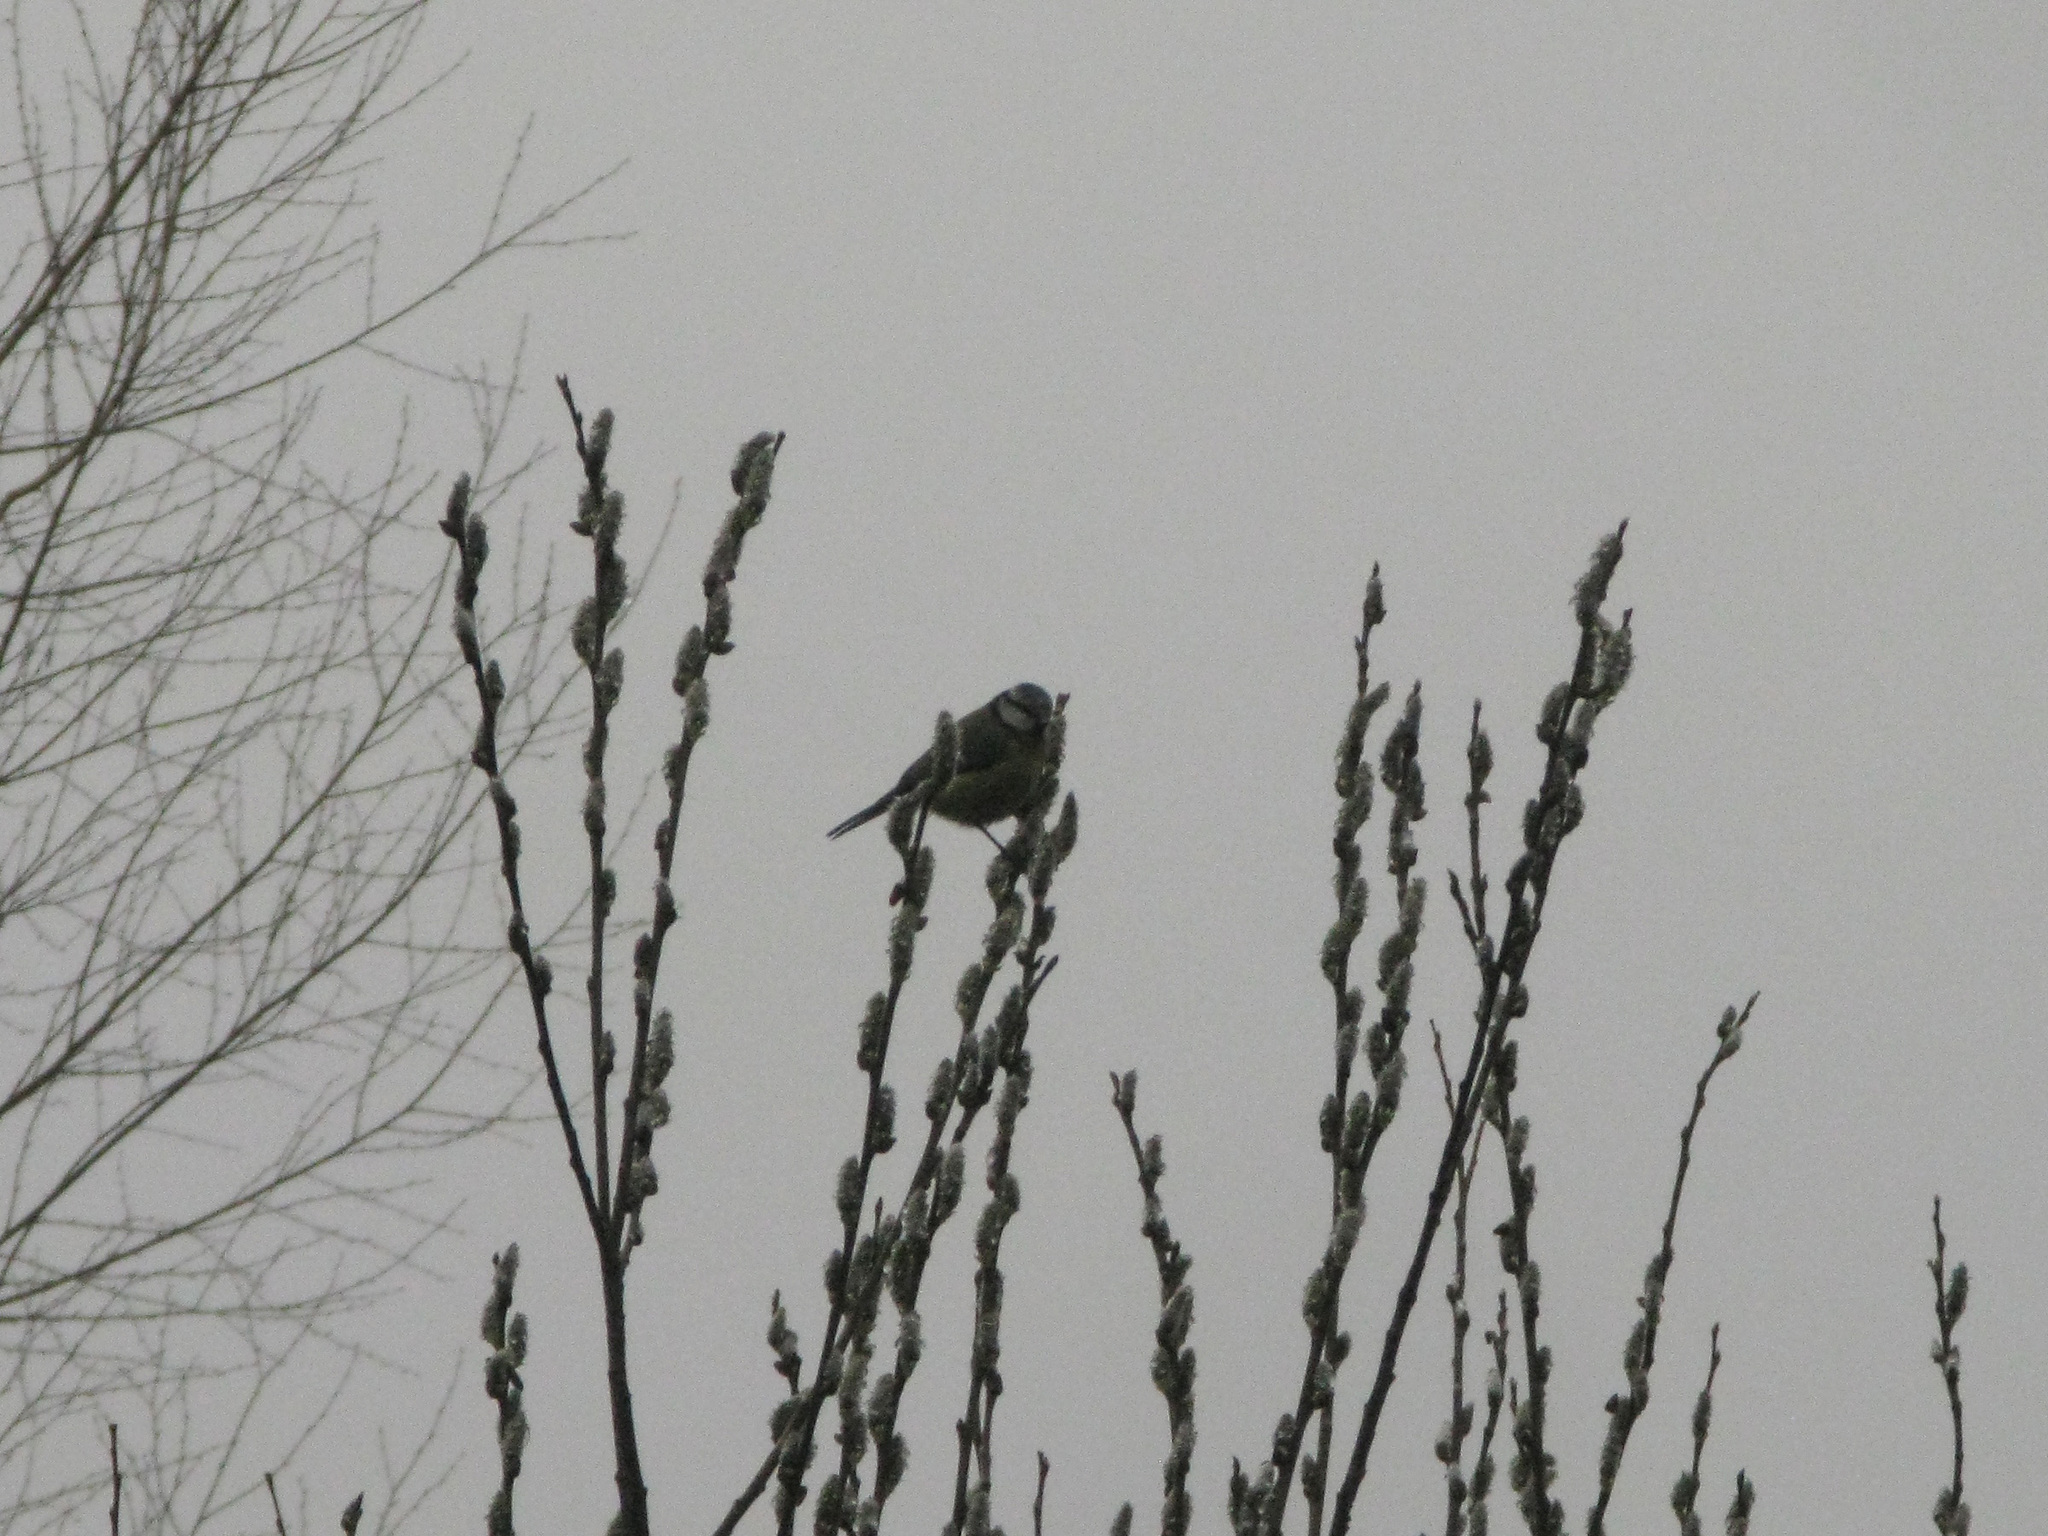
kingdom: Animalia
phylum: Chordata
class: Aves
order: Passeriformes
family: Paridae
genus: Cyanistes
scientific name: Cyanistes caeruleus
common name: Eurasian blue tit
